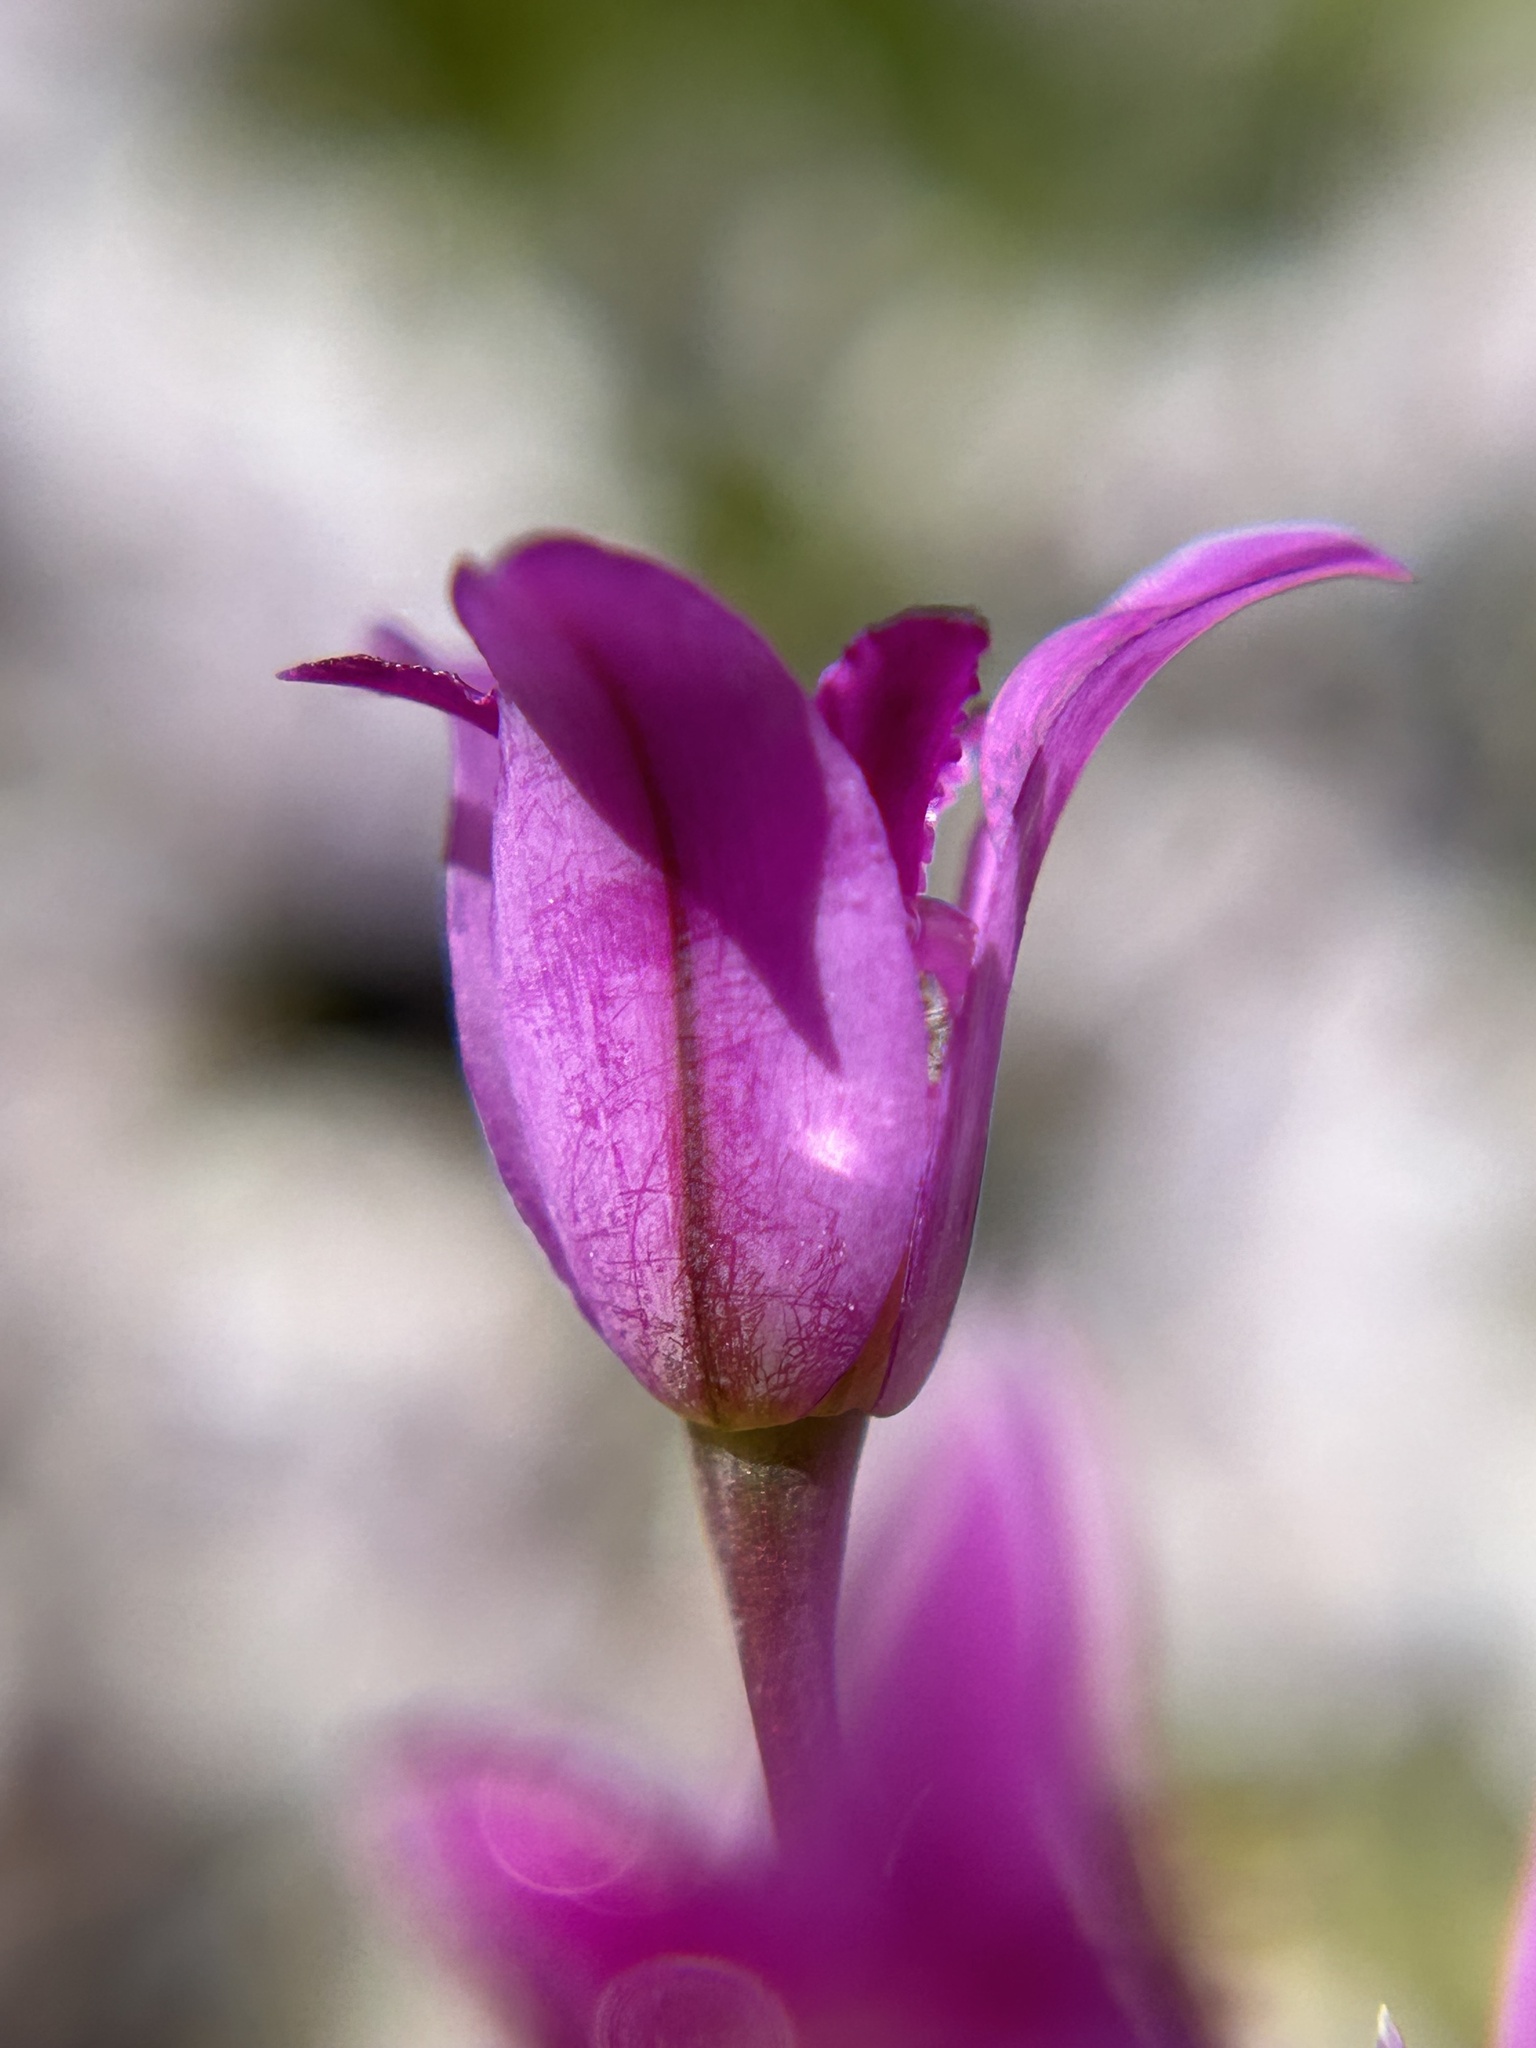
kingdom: Plantae
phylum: Tracheophyta
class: Liliopsida
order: Asparagales
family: Amaryllidaceae
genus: Allium
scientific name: Allium crispum
